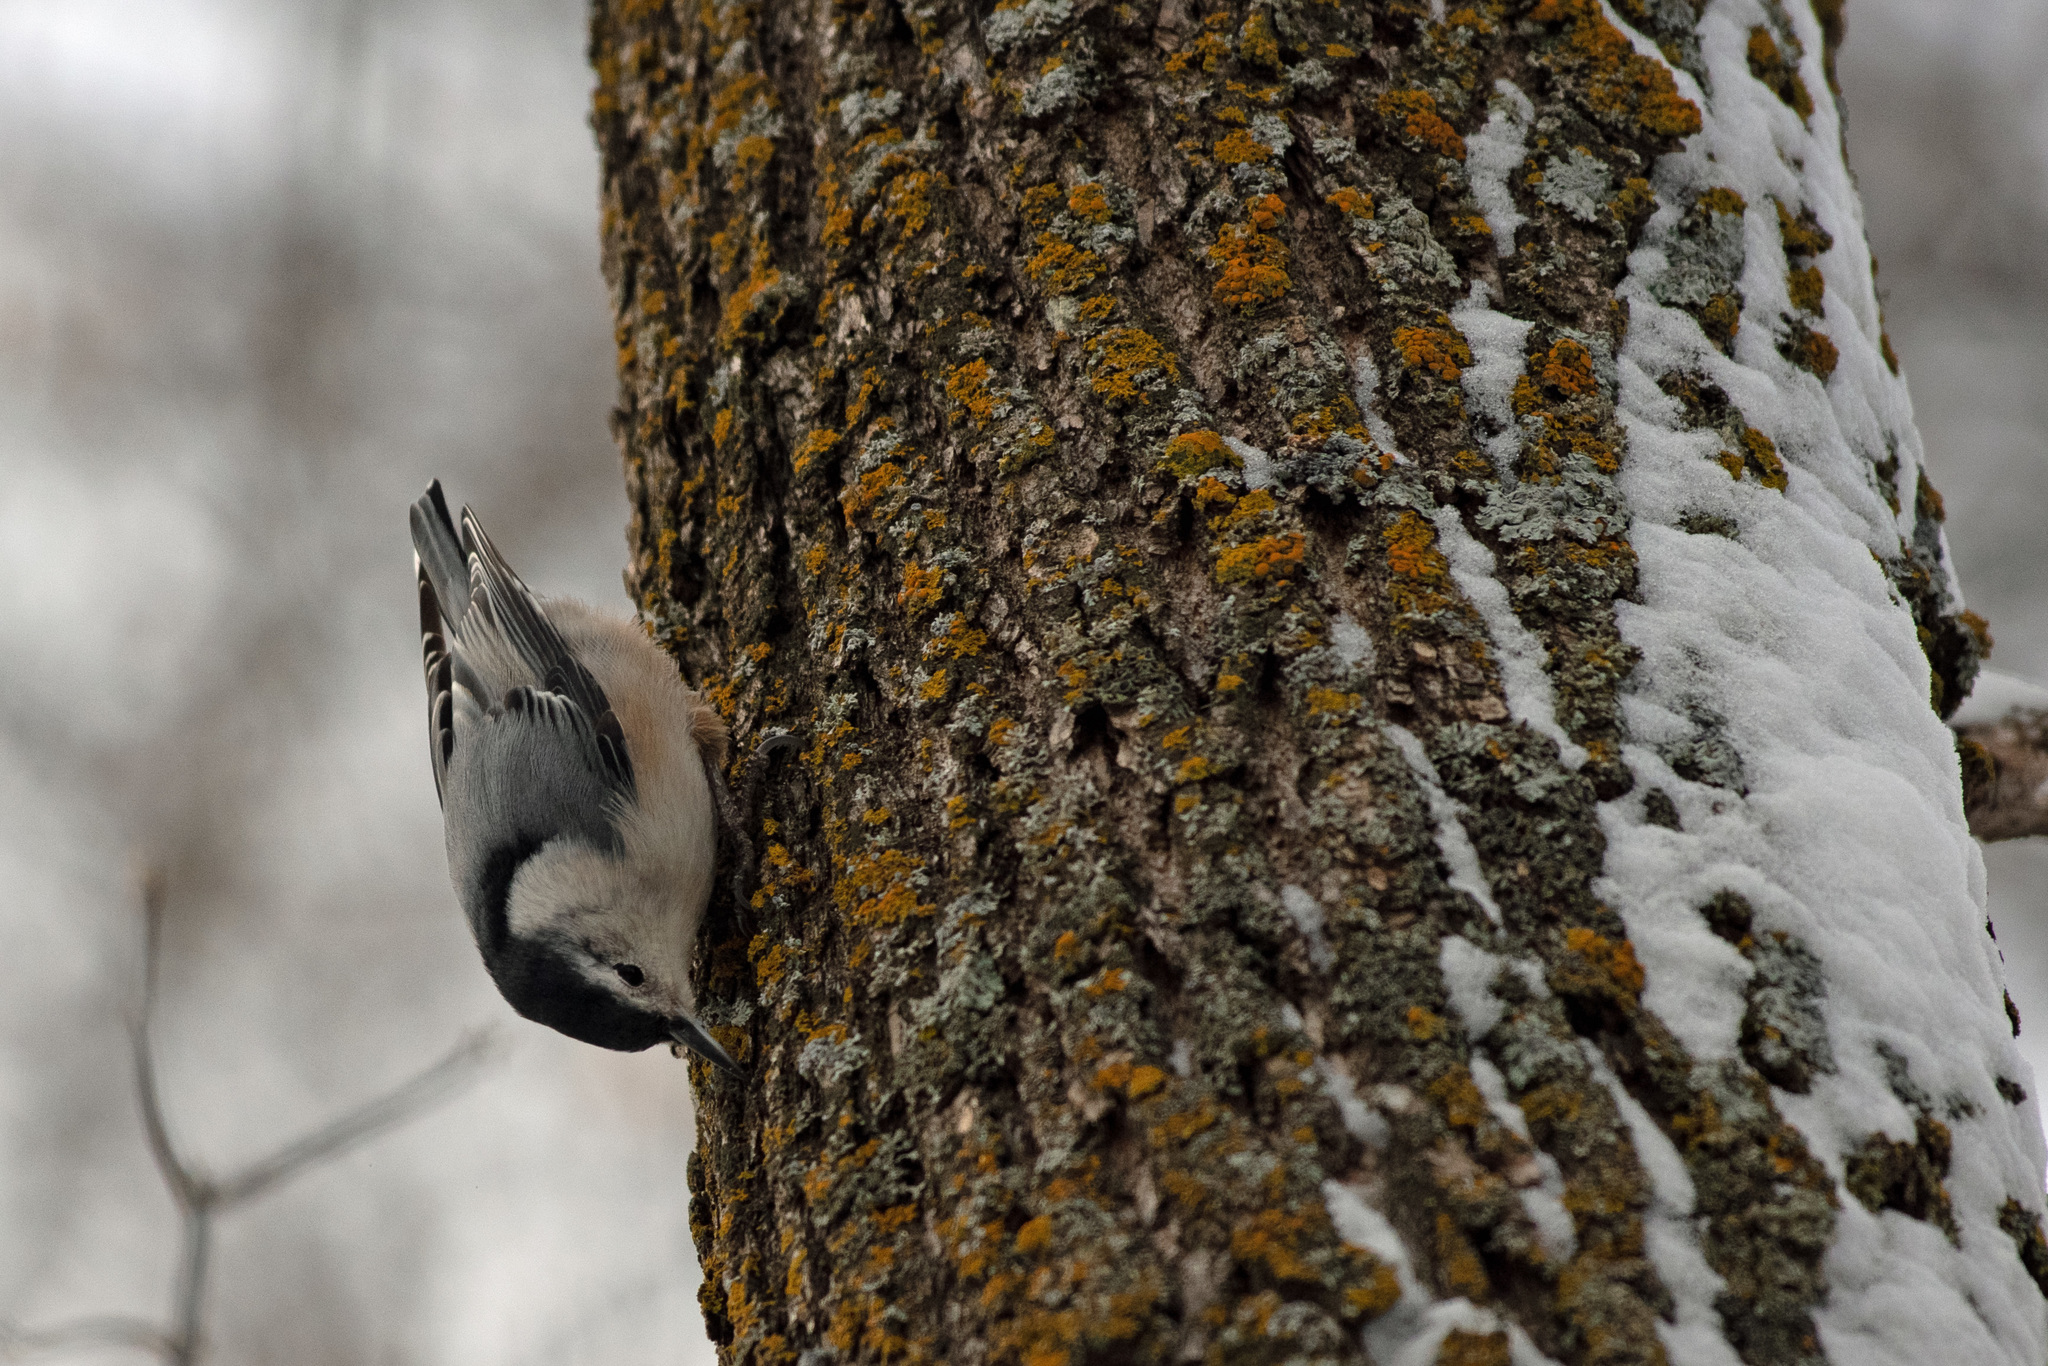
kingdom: Animalia
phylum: Chordata
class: Aves
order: Passeriformes
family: Sittidae
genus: Sitta
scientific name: Sitta carolinensis
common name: White-breasted nuthatch
